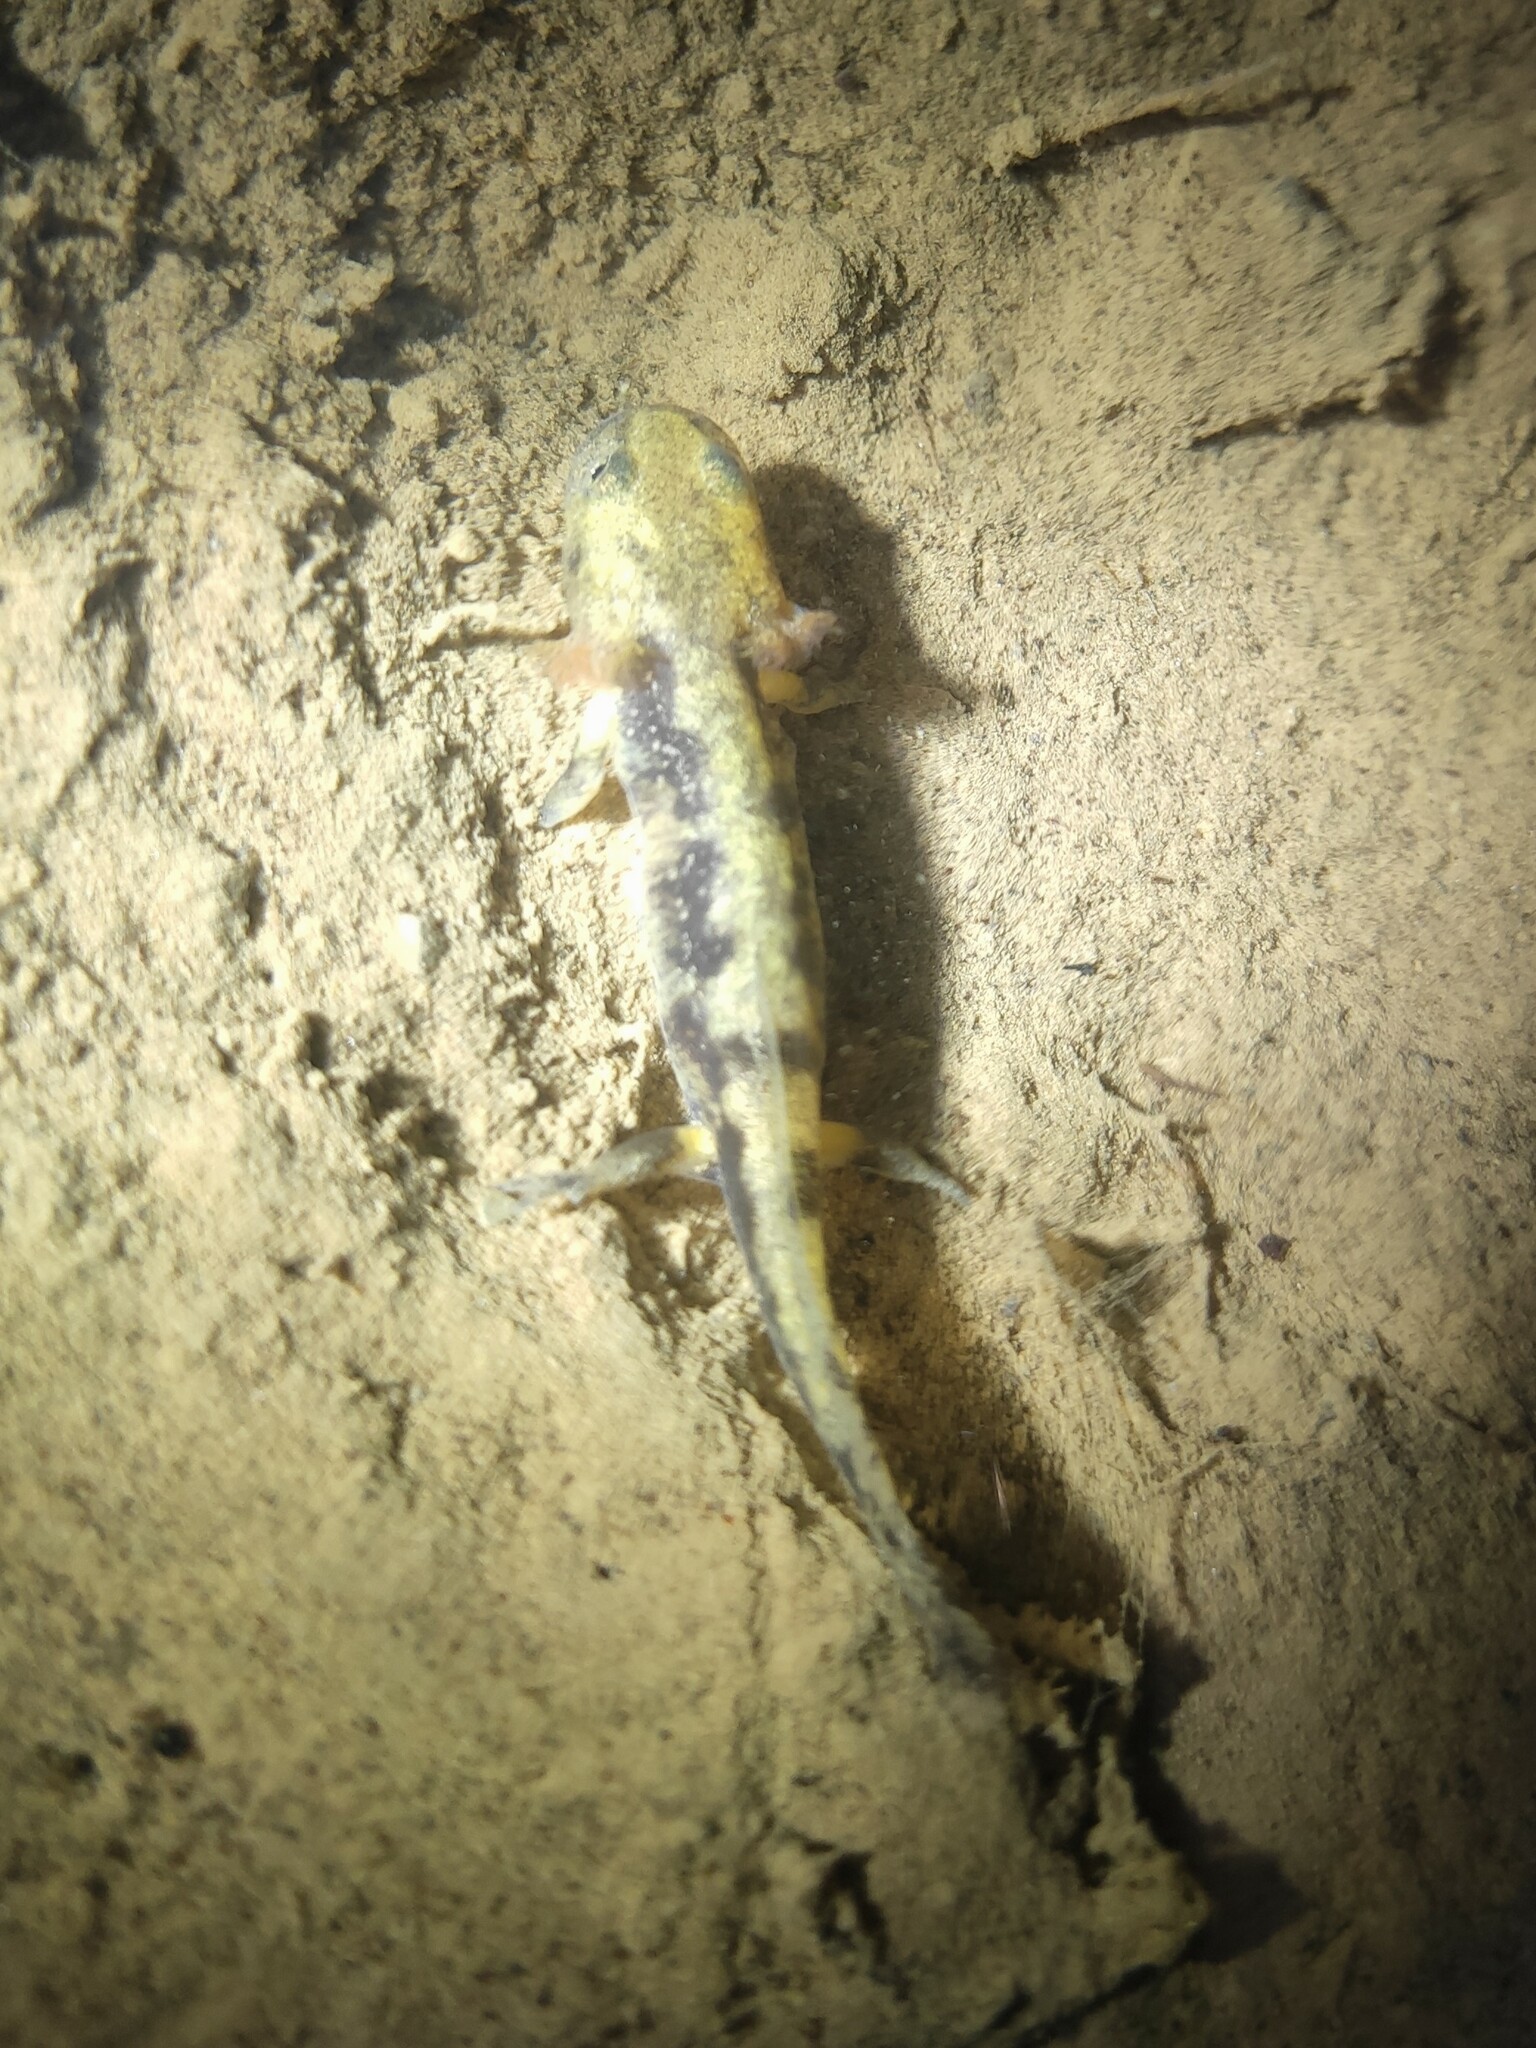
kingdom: Animalia
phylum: Chordata
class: Amphibia
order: Caudata
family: Salamandridae
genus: Salamandra
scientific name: Salamandra salamandra
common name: Fire salamander
